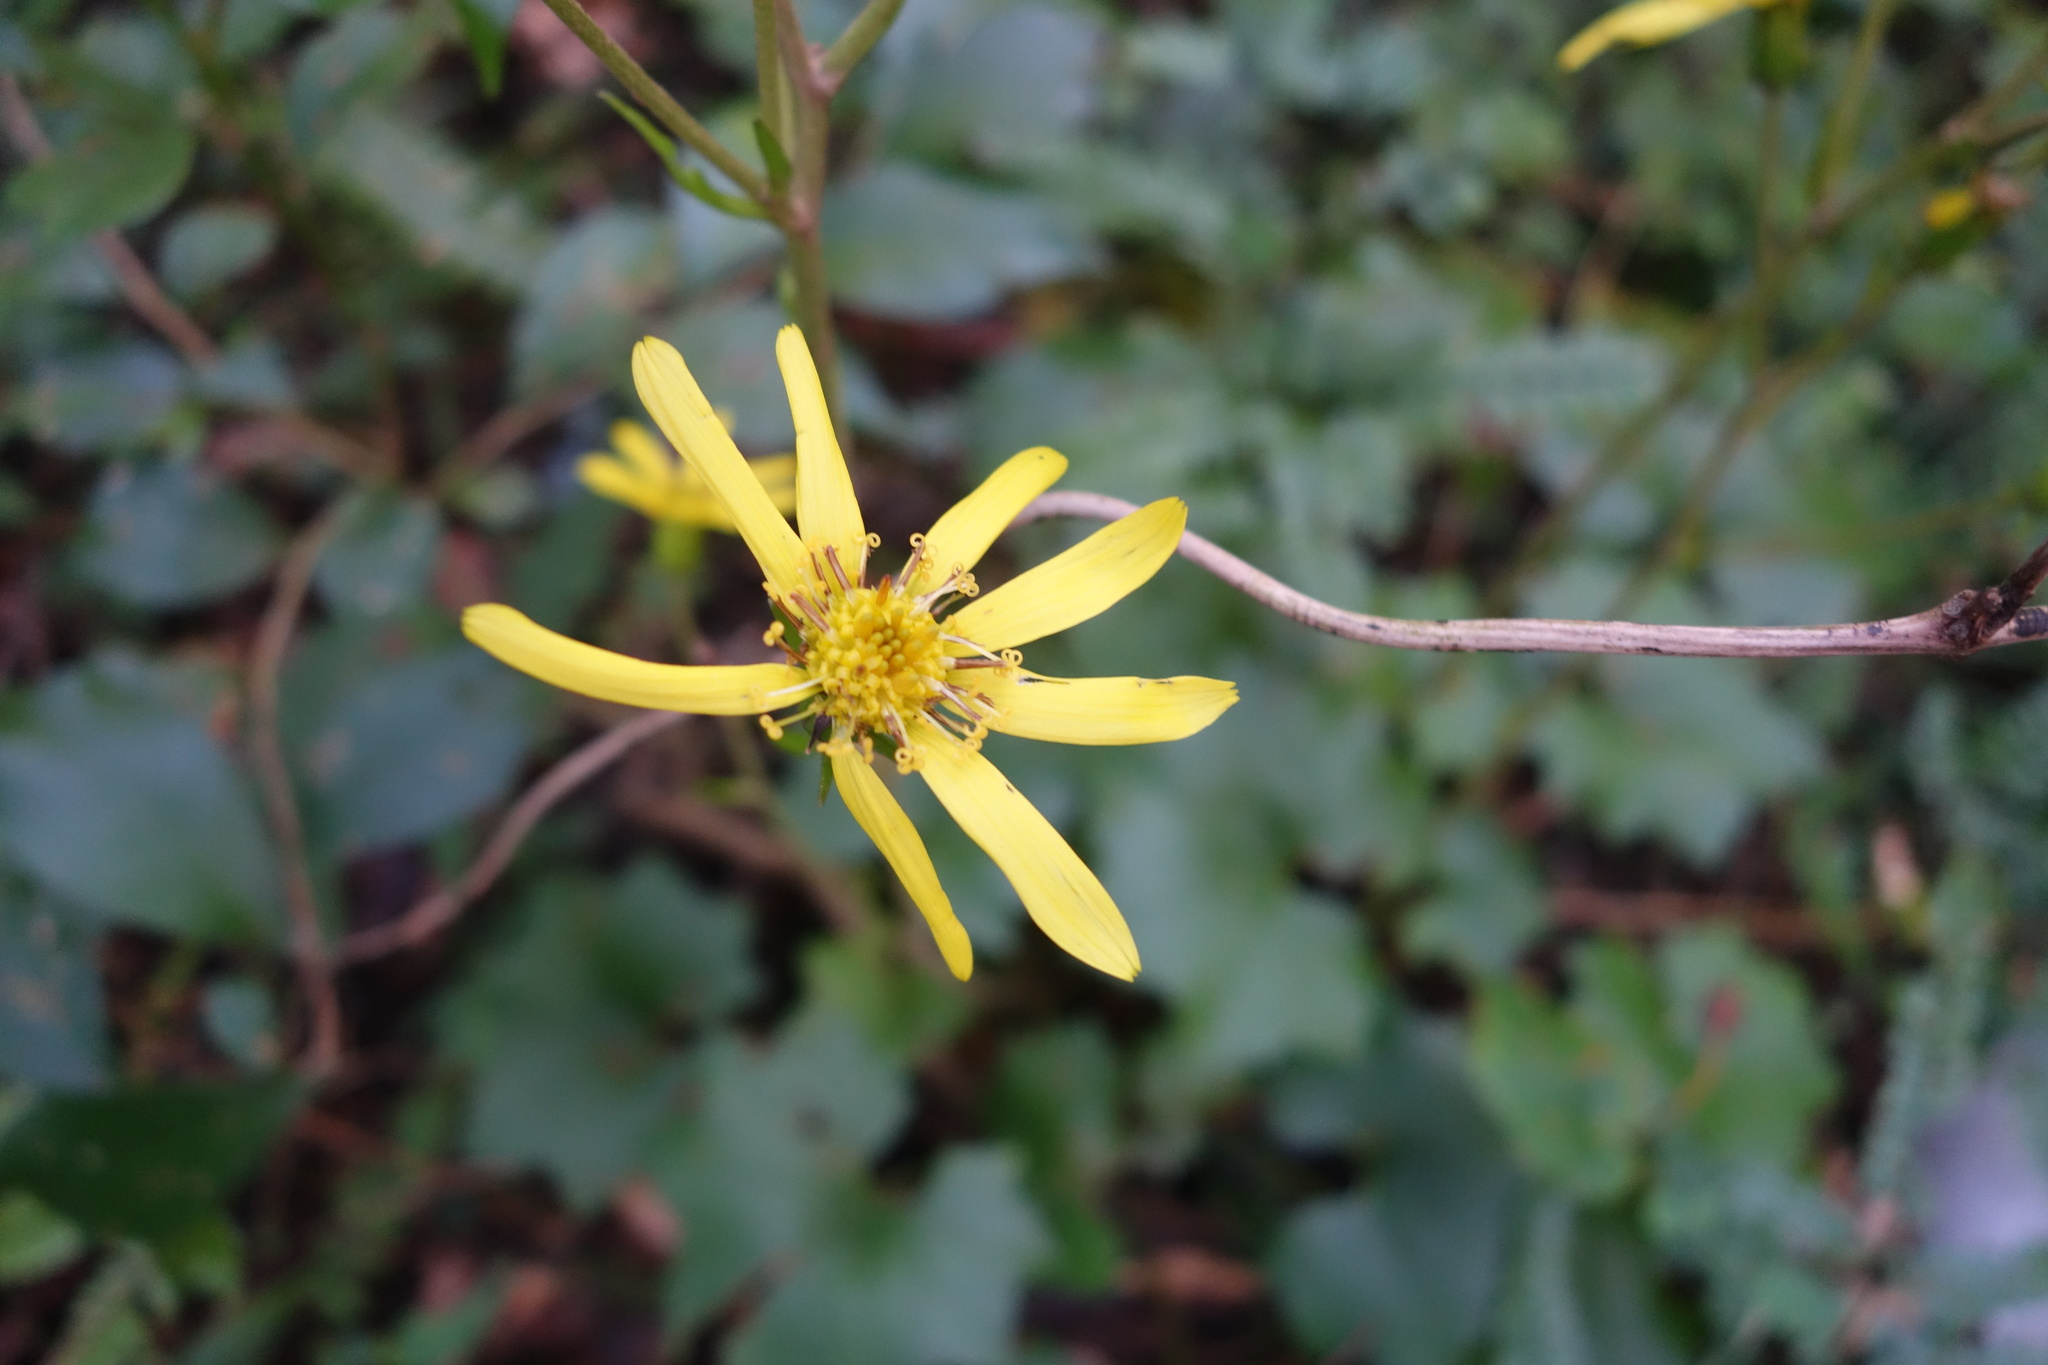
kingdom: Plantae
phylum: Tracheophyta
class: Magnoliopsida
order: Asterales
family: Asteraceae
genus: Farfugium
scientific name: Farfugium japonicum
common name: Leopardplant
